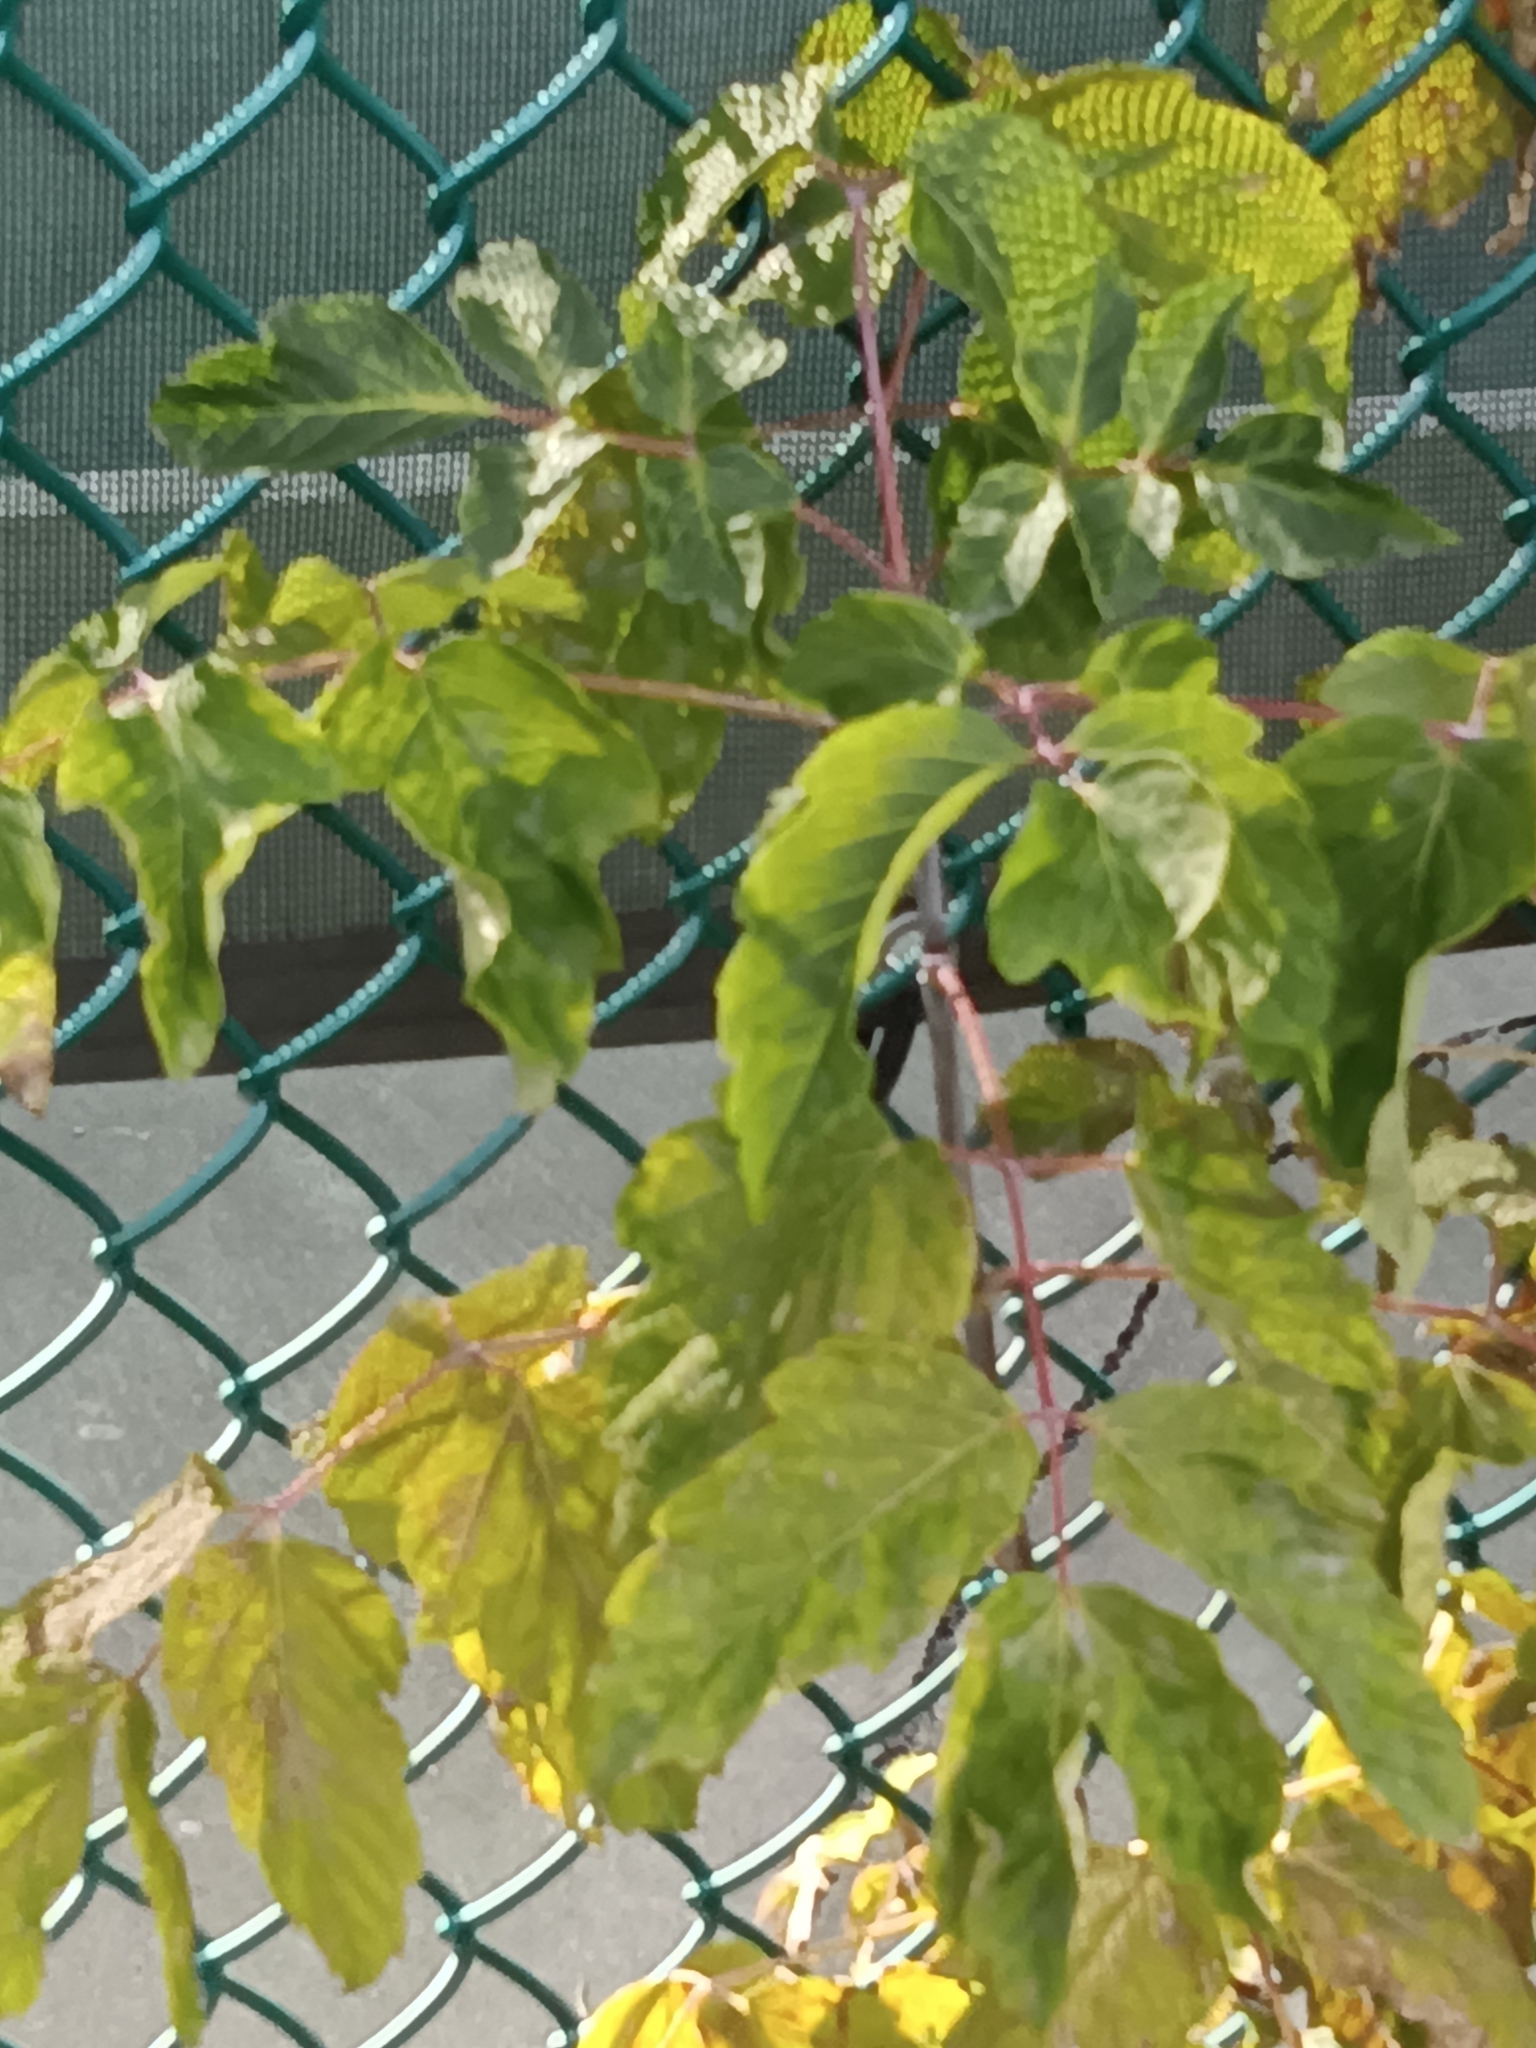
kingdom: Plantae
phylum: Tracheophyta
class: Magnoliopsida
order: Sapindales
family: Sapindaceae
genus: Acer
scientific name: Acer negundo
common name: Ashleaf maple
